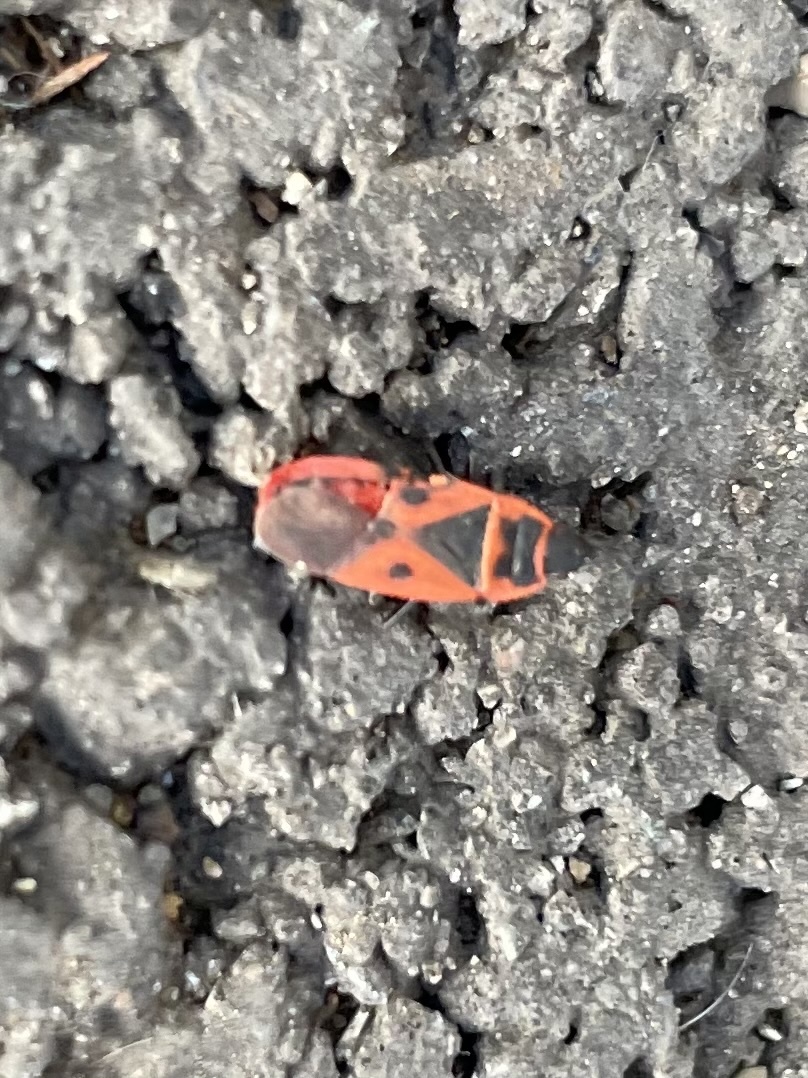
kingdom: Animalia
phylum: Arthropoda
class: Insecta
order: Hemiptera
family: Pyrrhocoridae
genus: Scantius
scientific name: Scantius aegyptius
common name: Red bug
